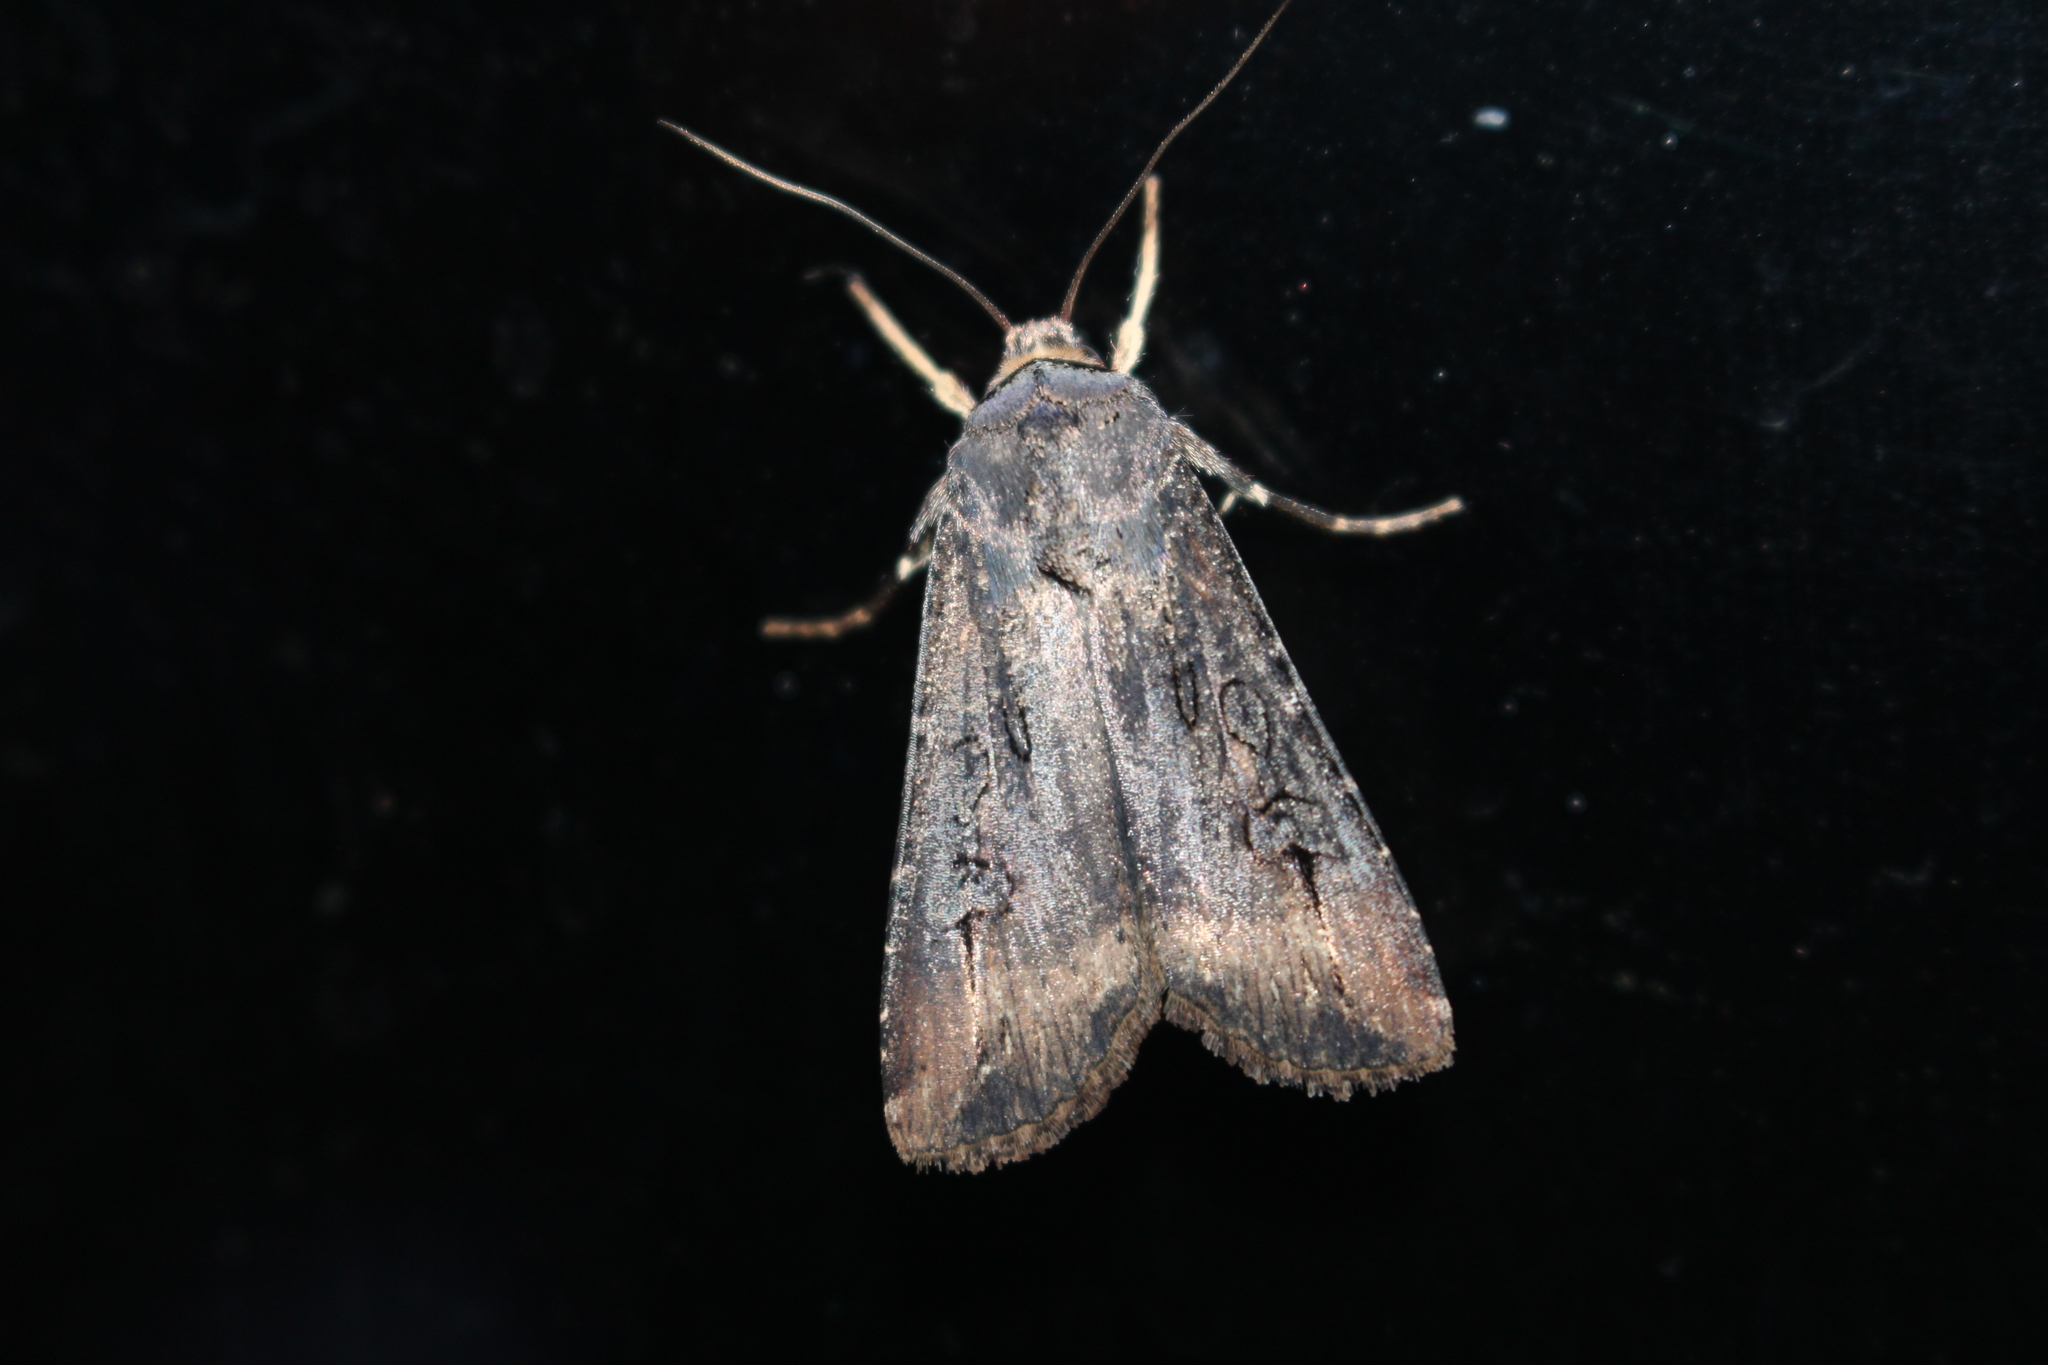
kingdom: Animalia
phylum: Arthropoda
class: Insecta
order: Lepidoptera
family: Noctuidae
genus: Agrotis
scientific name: Agrotis ipsilon
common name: Dark sword-grass
